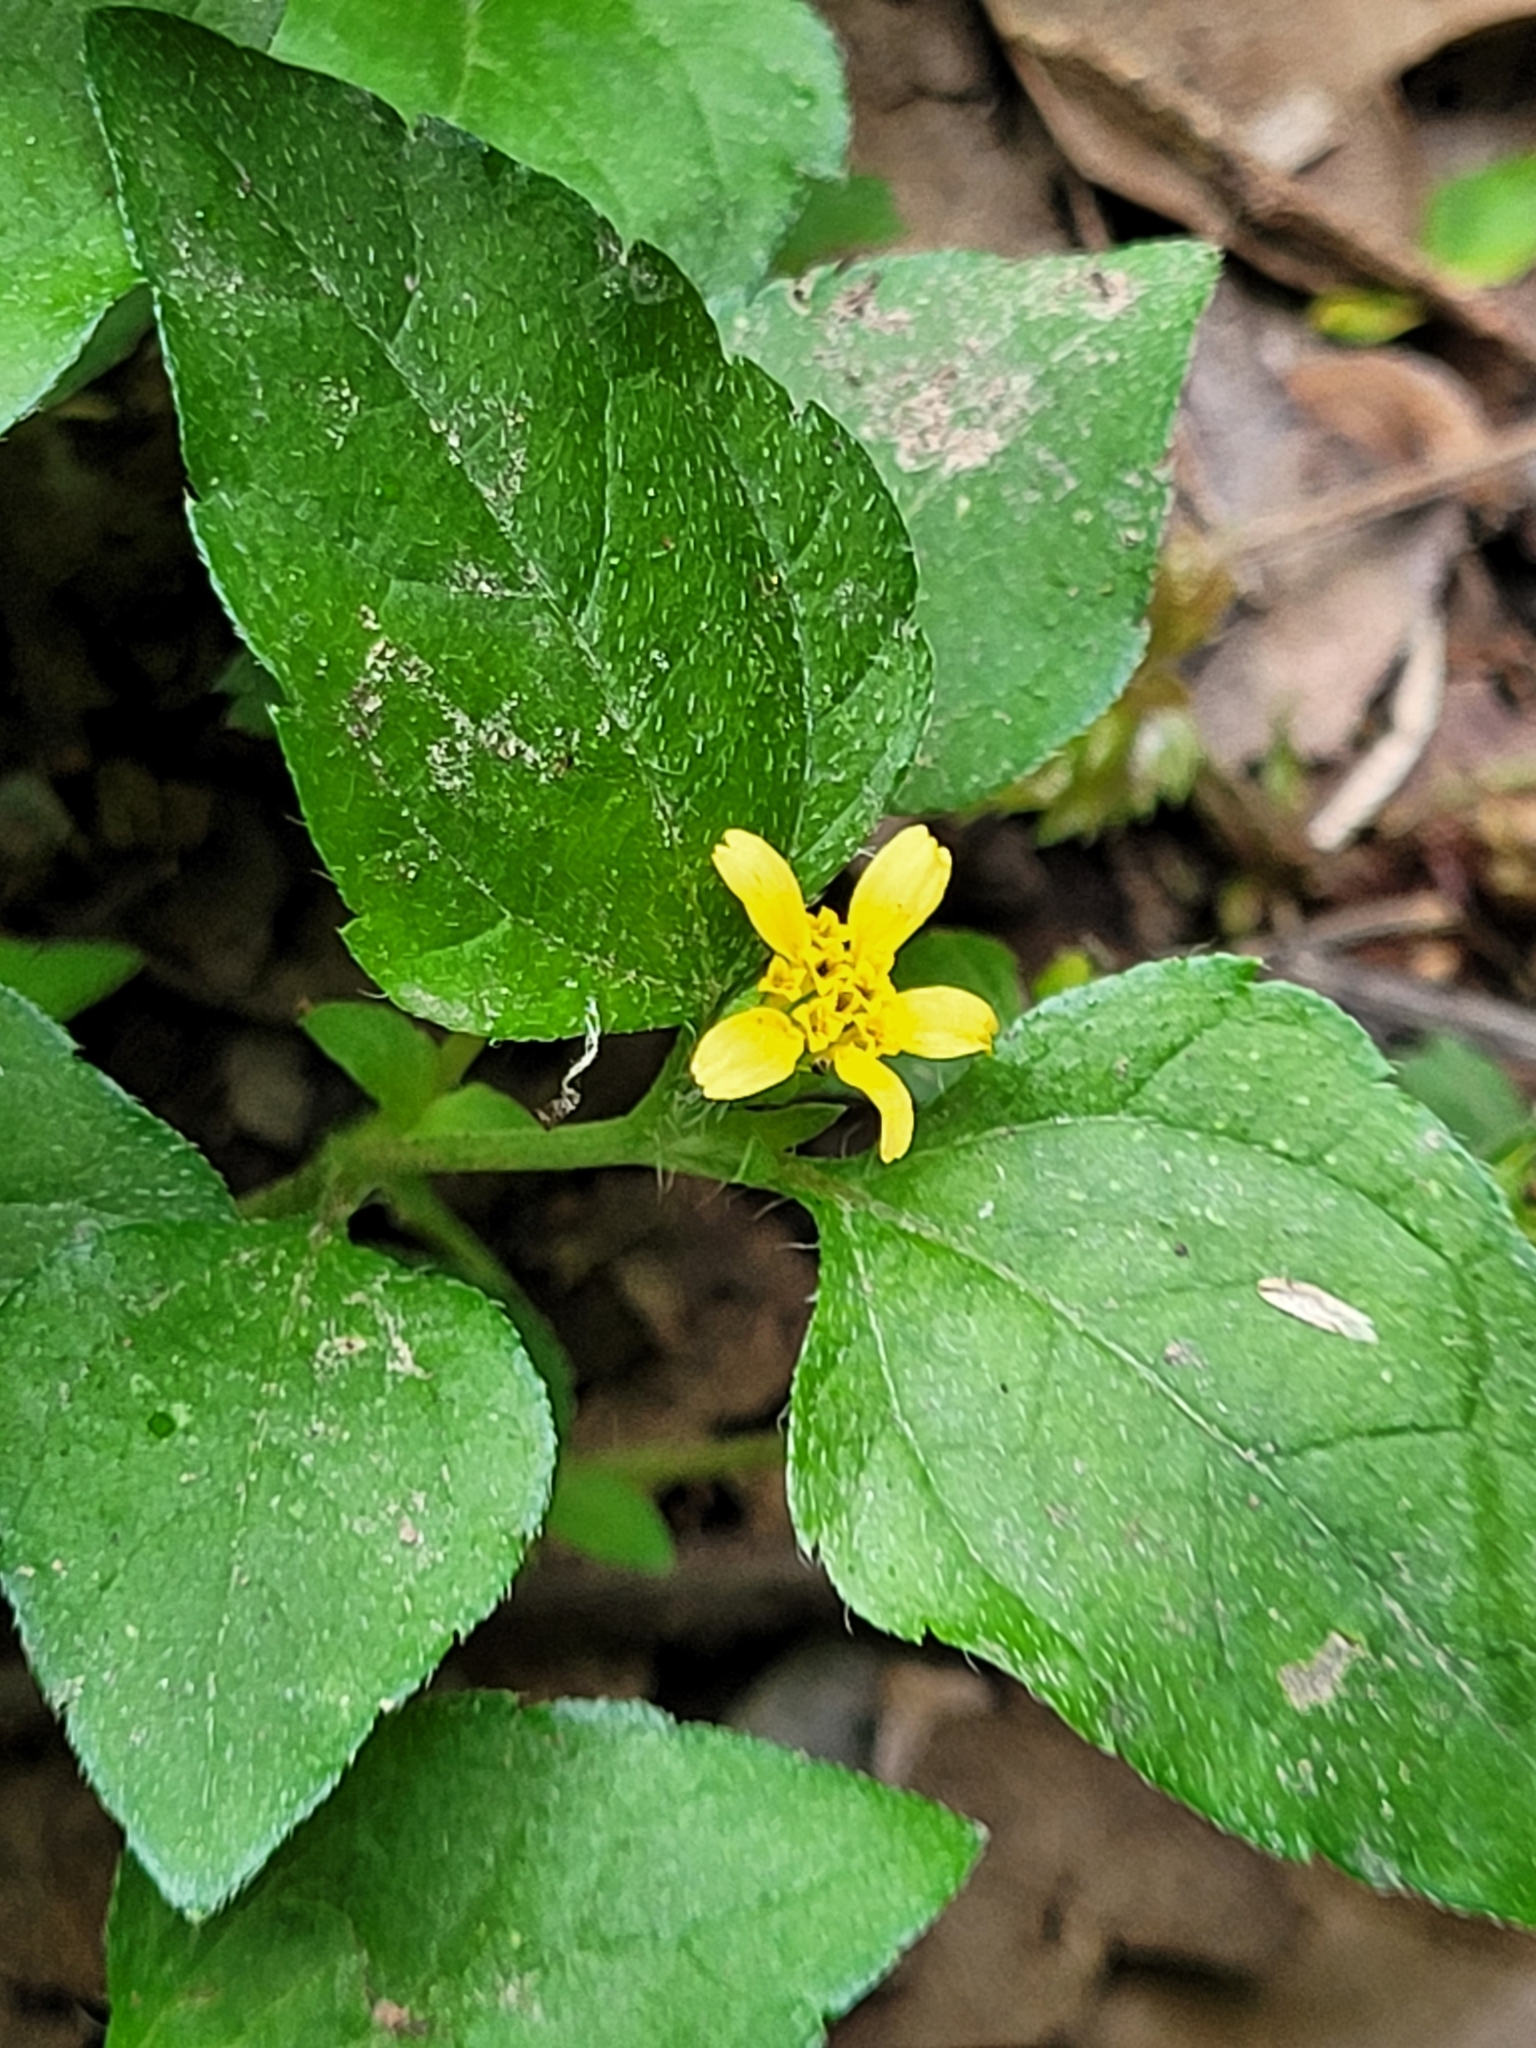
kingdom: Plantae
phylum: Tracheophyta
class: Magnoliopsida
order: Asterales
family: Asteraceae
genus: Calyptocarpus
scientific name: Calyptocarpus vialis
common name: Straggler daisy
